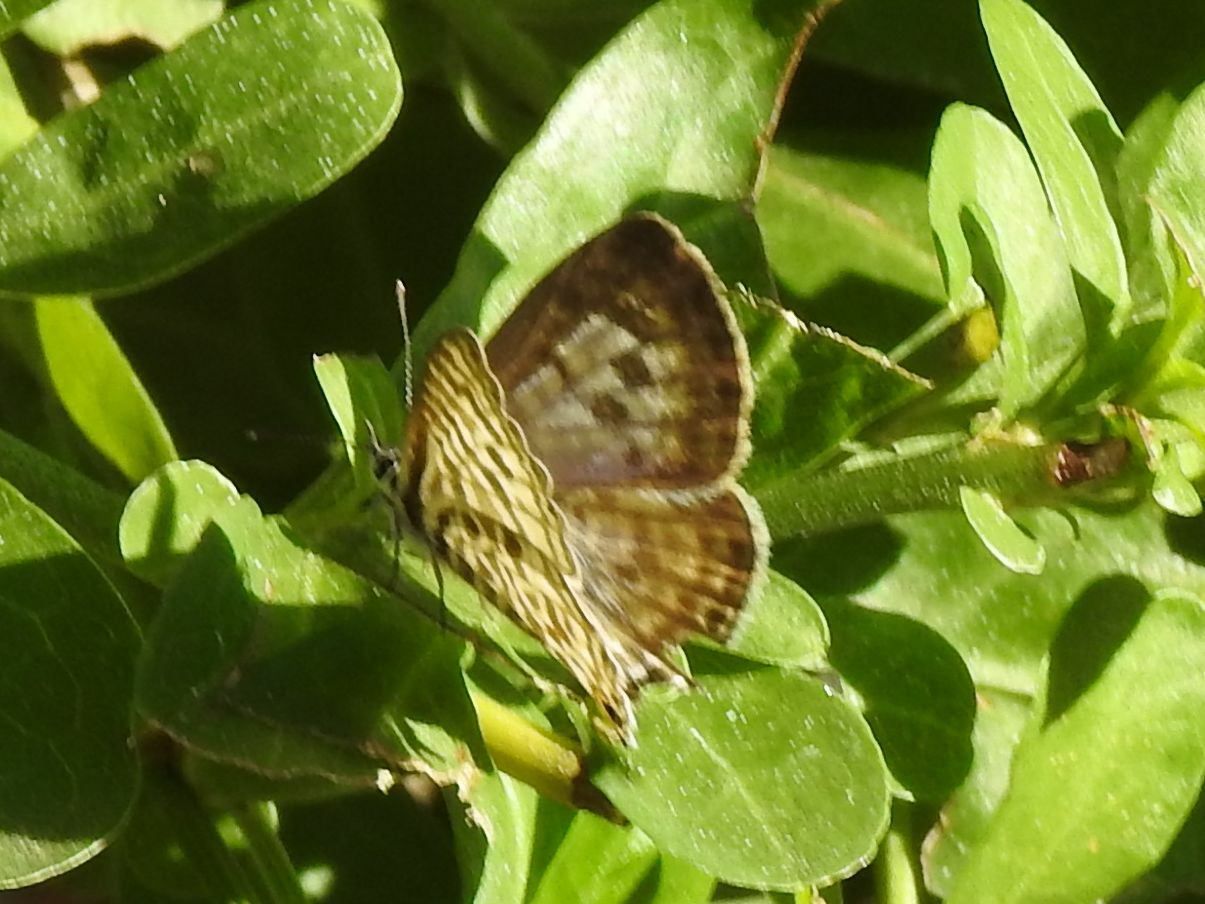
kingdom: Animalia
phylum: Arthropoda
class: Insecta
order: Lepidoptera
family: Lycaenidae
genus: Leptotes
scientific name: Leptotes
